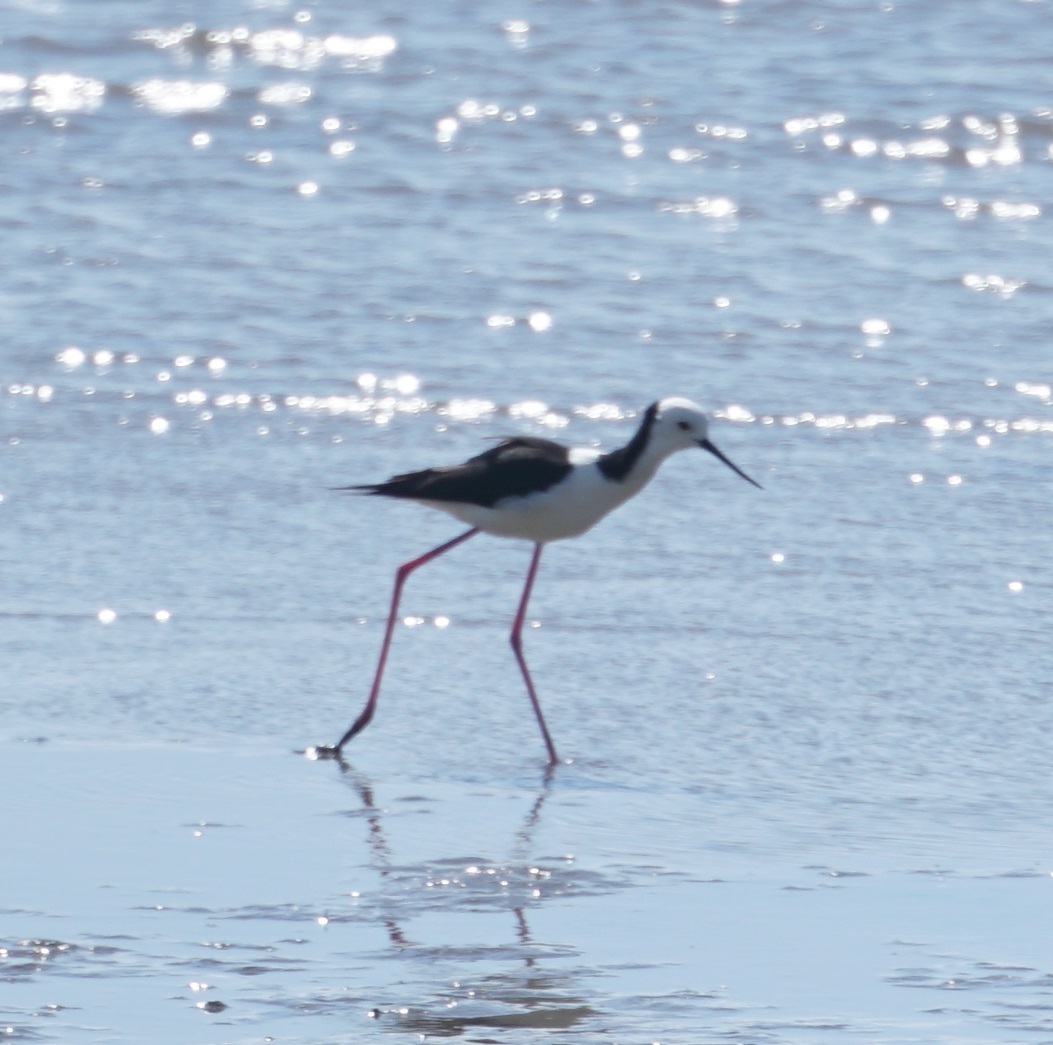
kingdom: Animalia
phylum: Chordata
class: Aves
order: Charadriiformes
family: Recurvirostridae
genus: Himantopus
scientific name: Himantopus leucocephalus
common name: White-headed stilt
